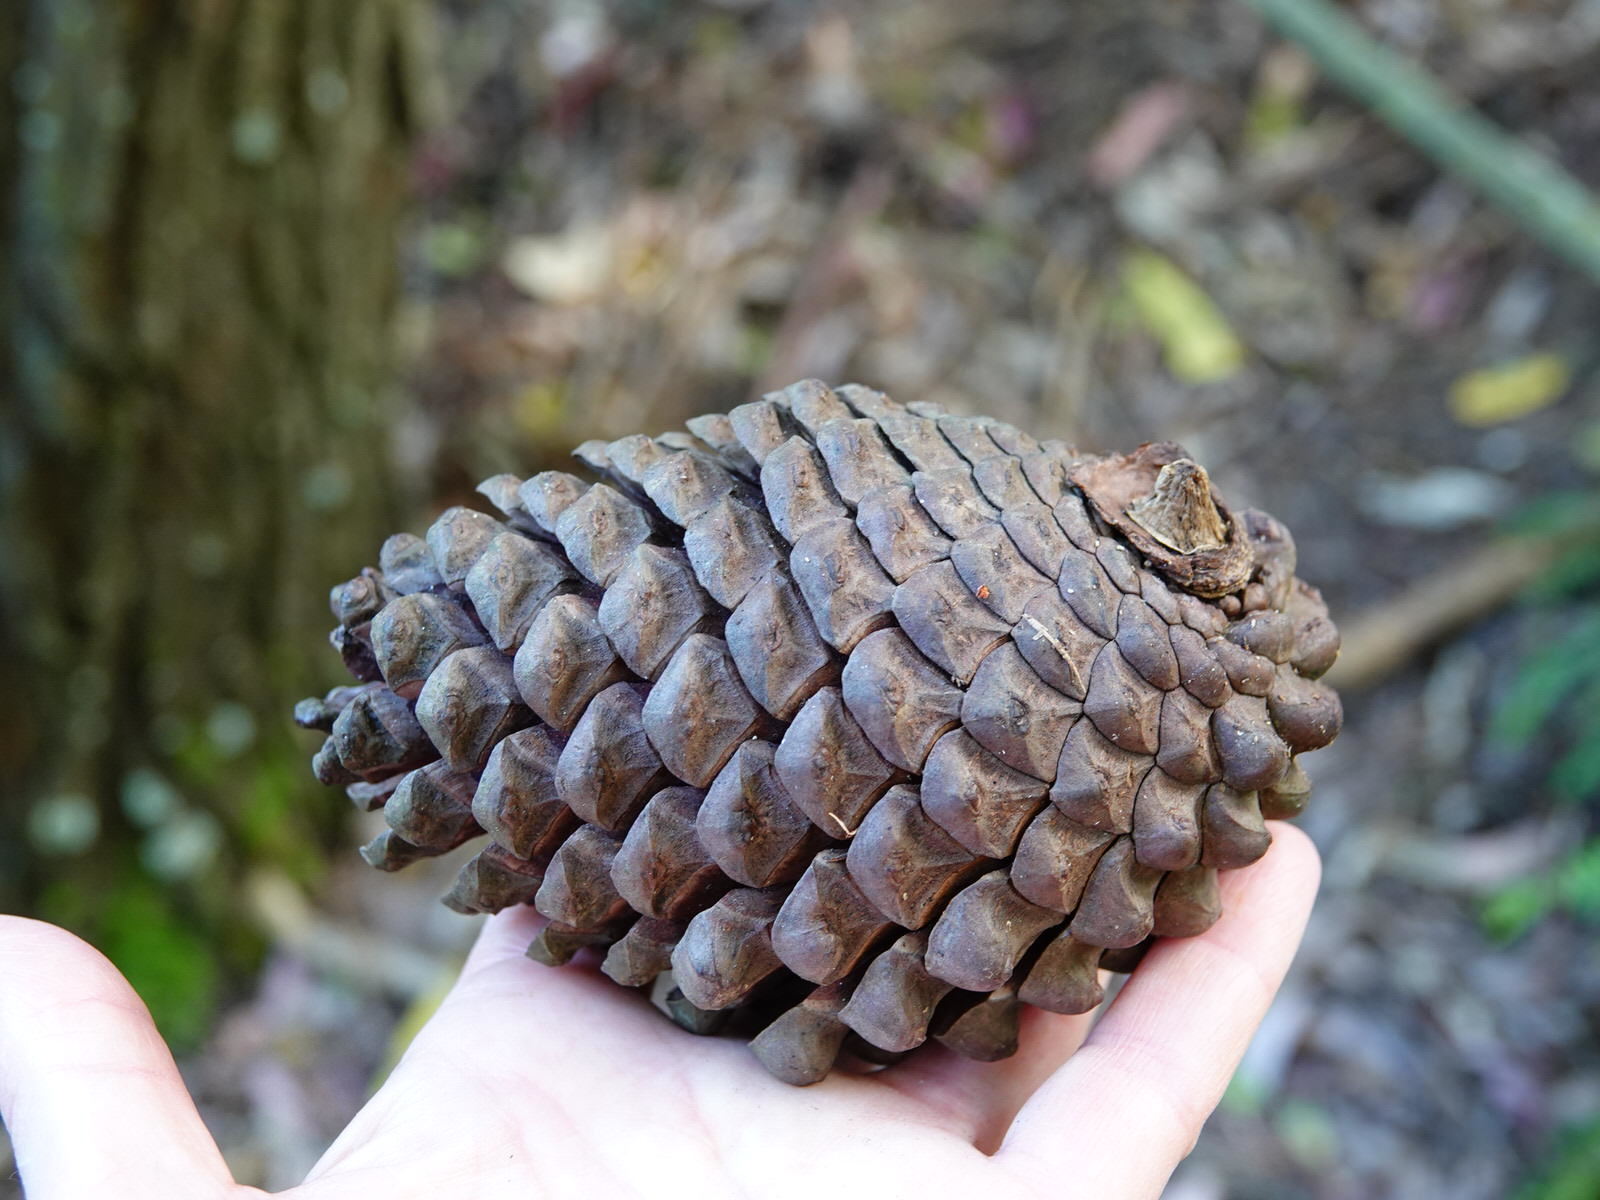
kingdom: Plantae
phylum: Tracheophyta
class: Pinopsida
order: Pinales
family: Pinaceae
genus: Pinus
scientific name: Pinus radiata
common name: Monterey pine
